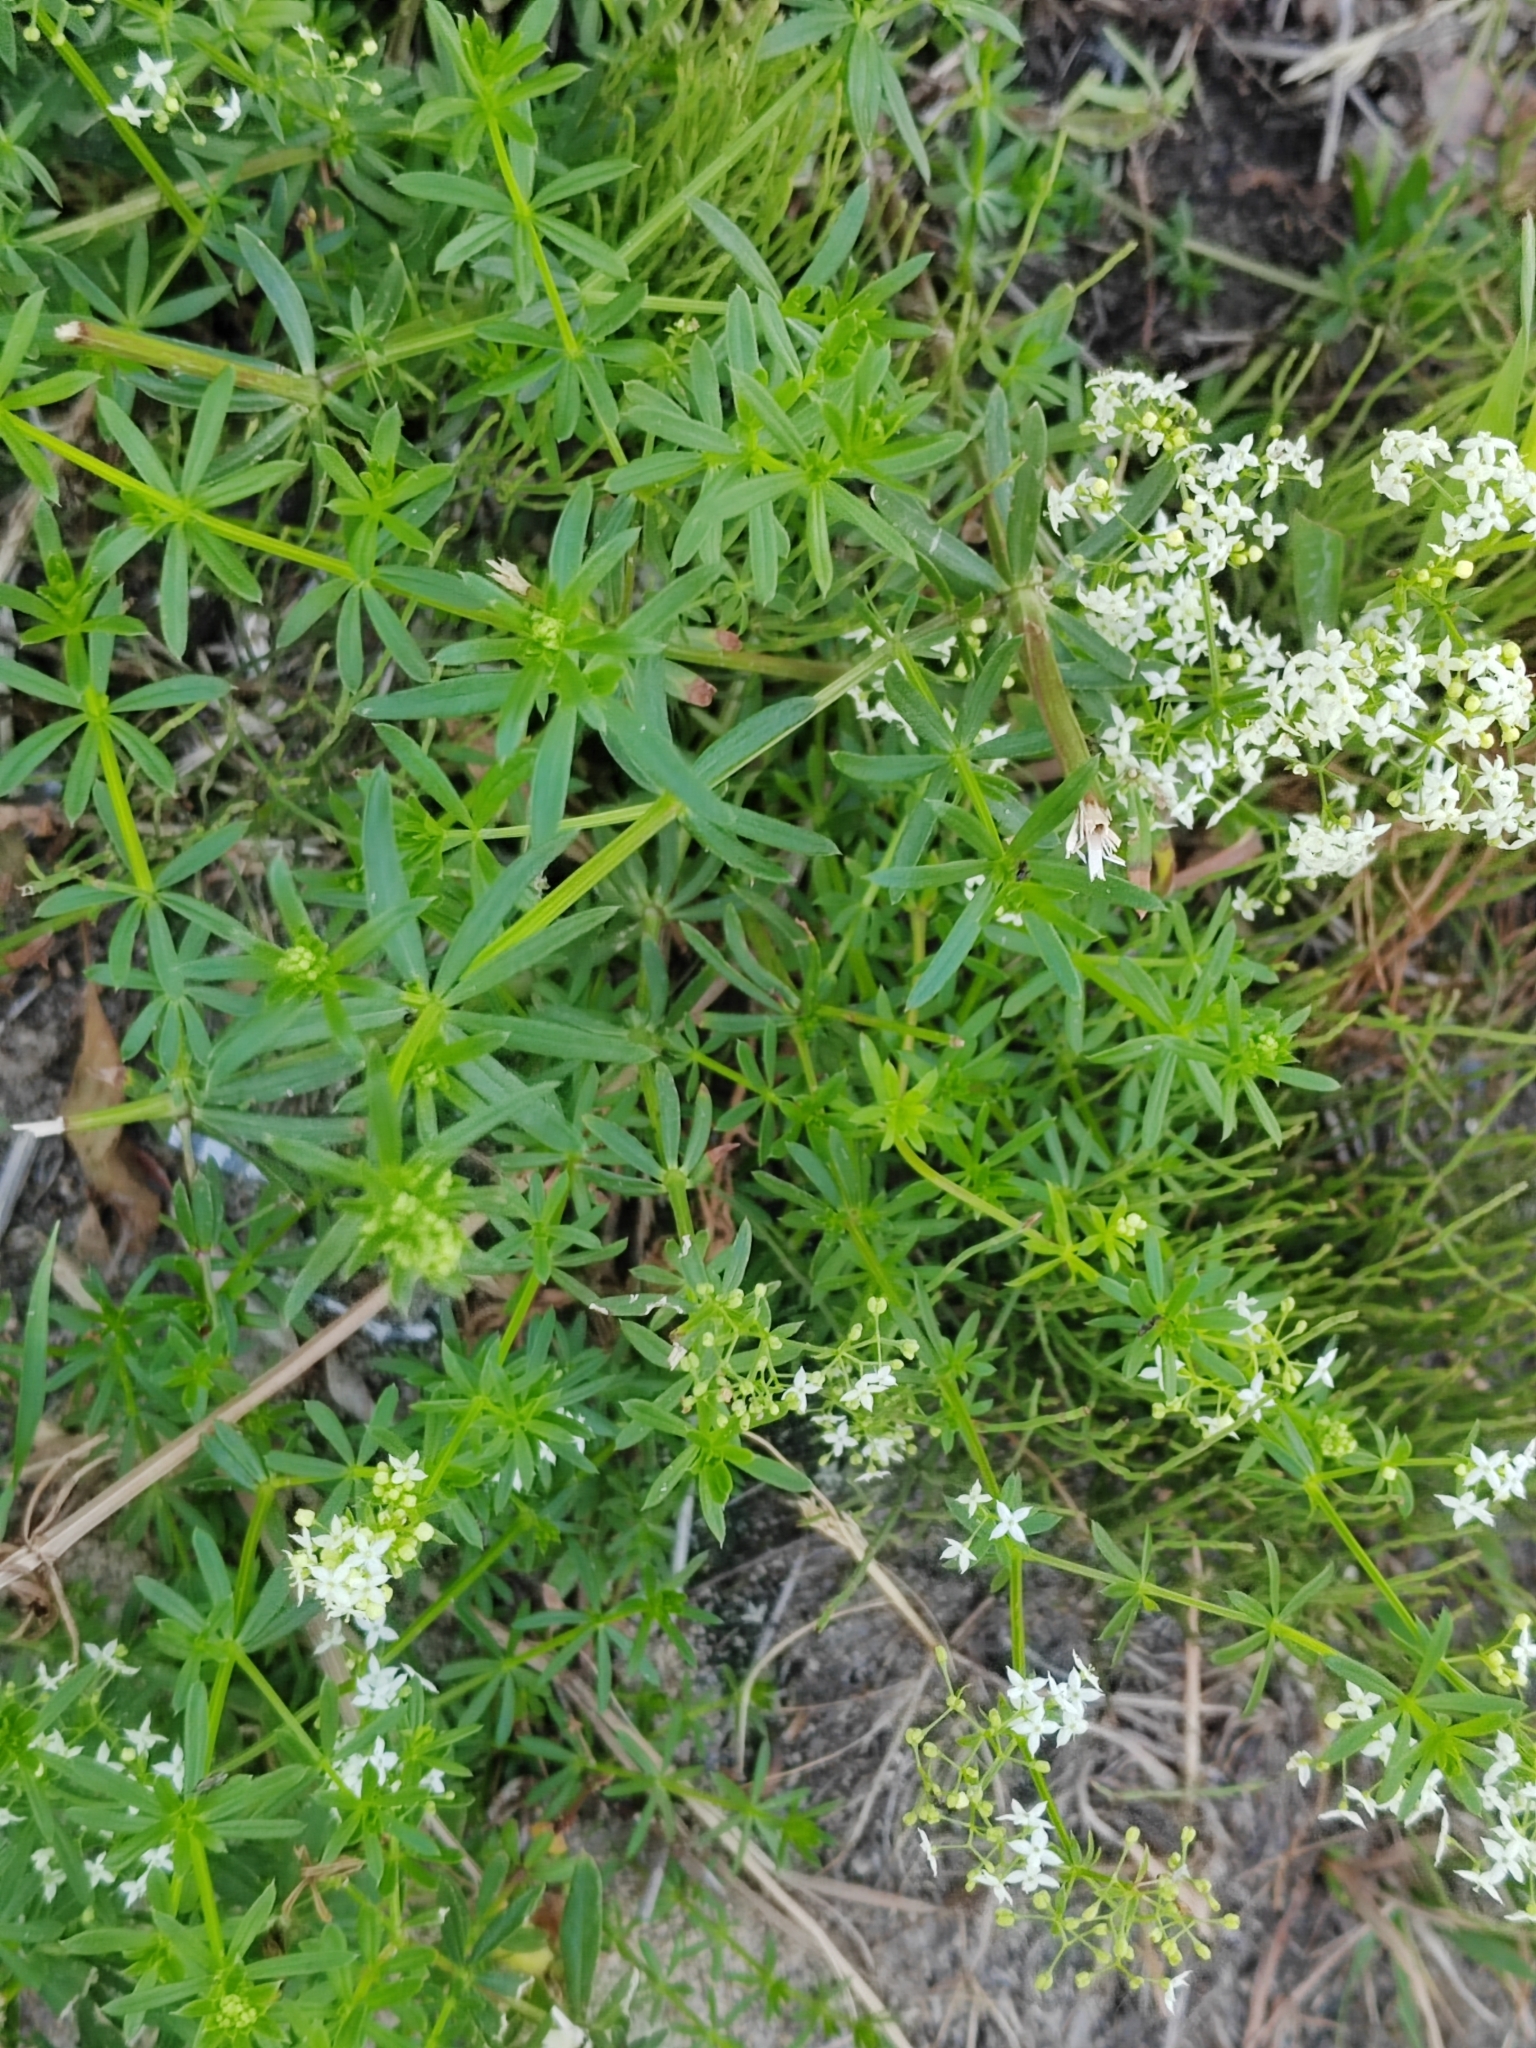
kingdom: Plantae
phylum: Tracheophyta
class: Magnoliopsida
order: Gentianales
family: Rubiaceae
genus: Galium
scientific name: Galium mollugo
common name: Hedge bedstraw
